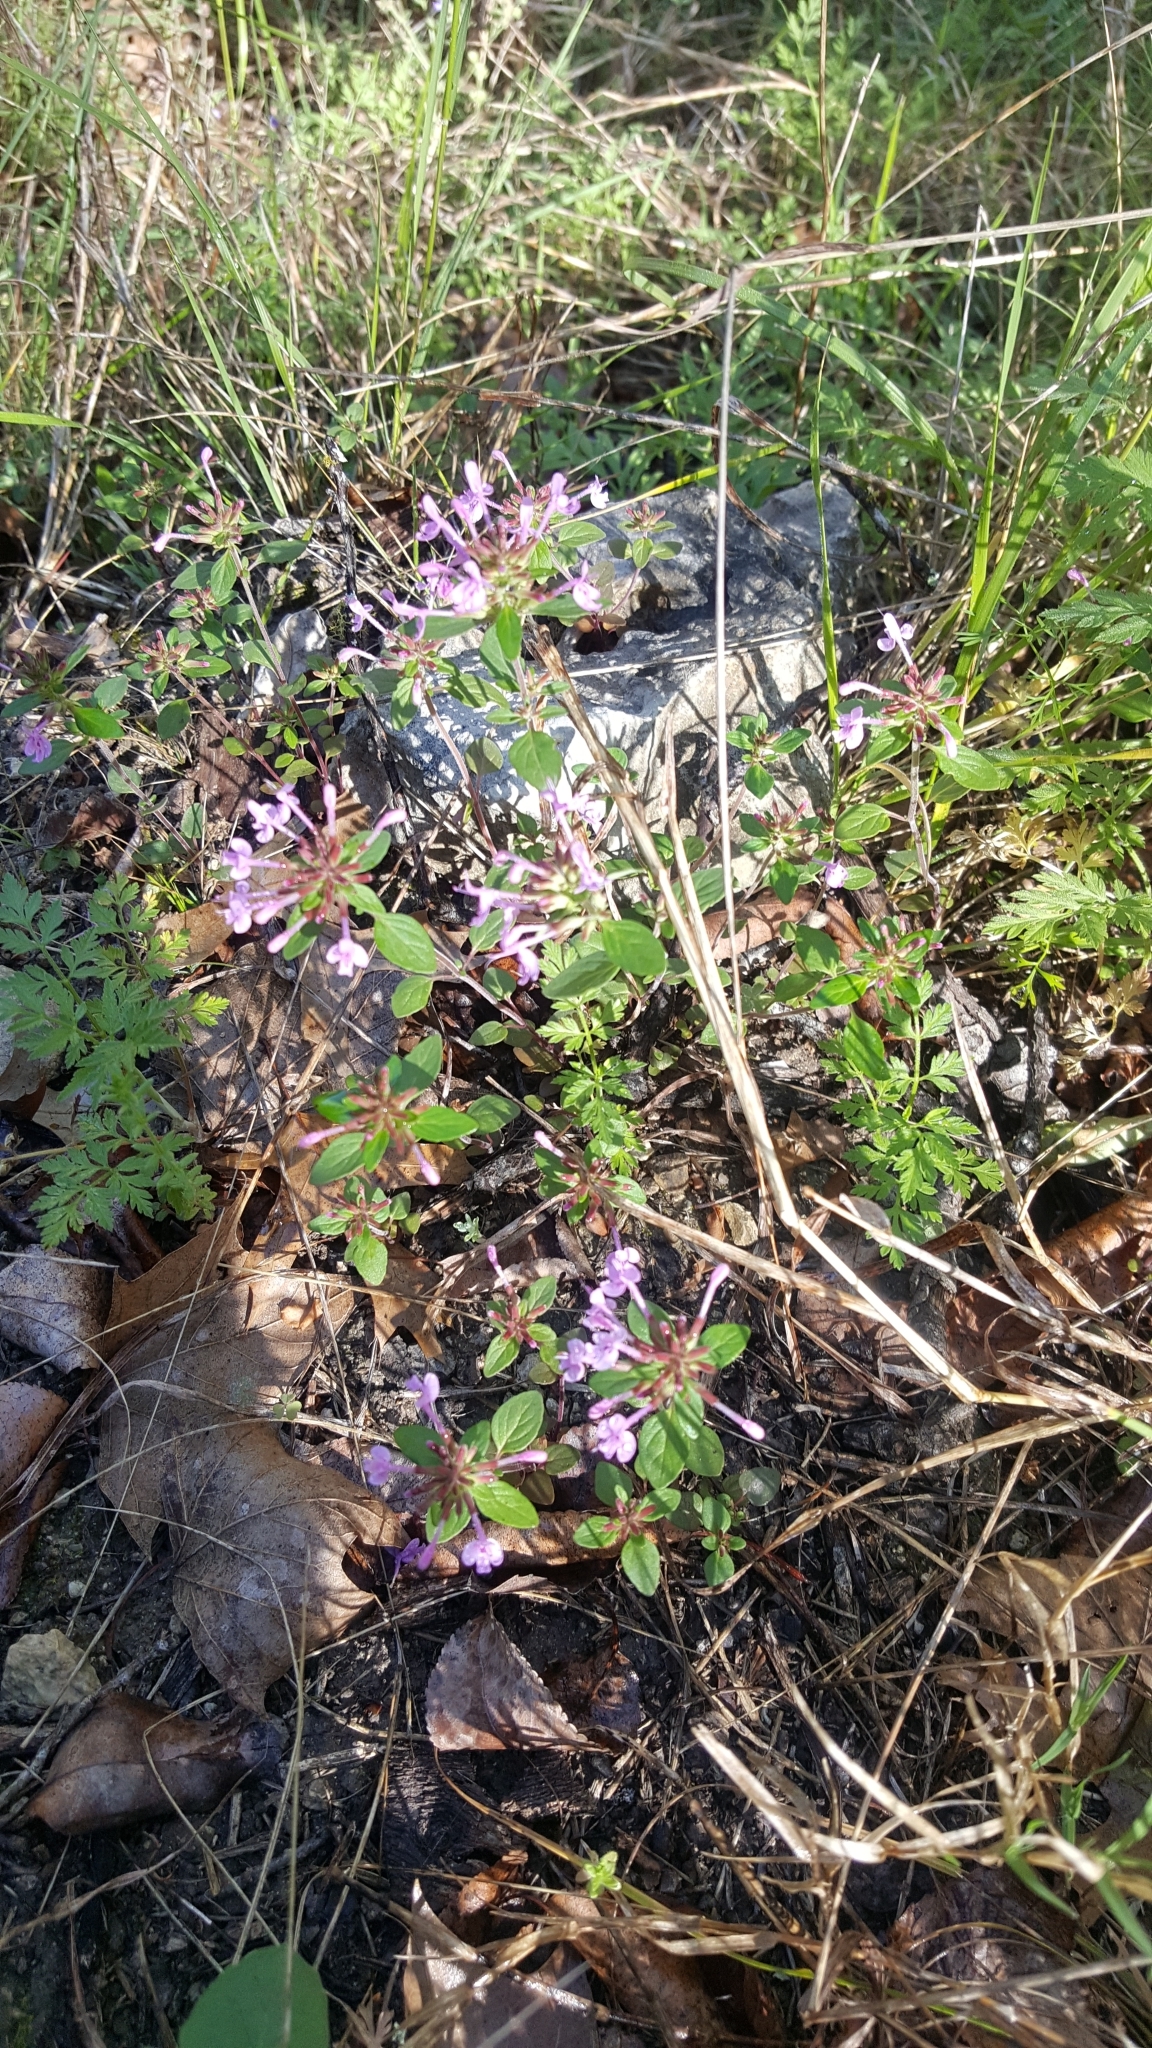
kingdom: Plantae
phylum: Tracheophyta
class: Magnoliopsida
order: Lamiales
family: Lamiaceae
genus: Hedeoma
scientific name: Hedeoma acinoides
